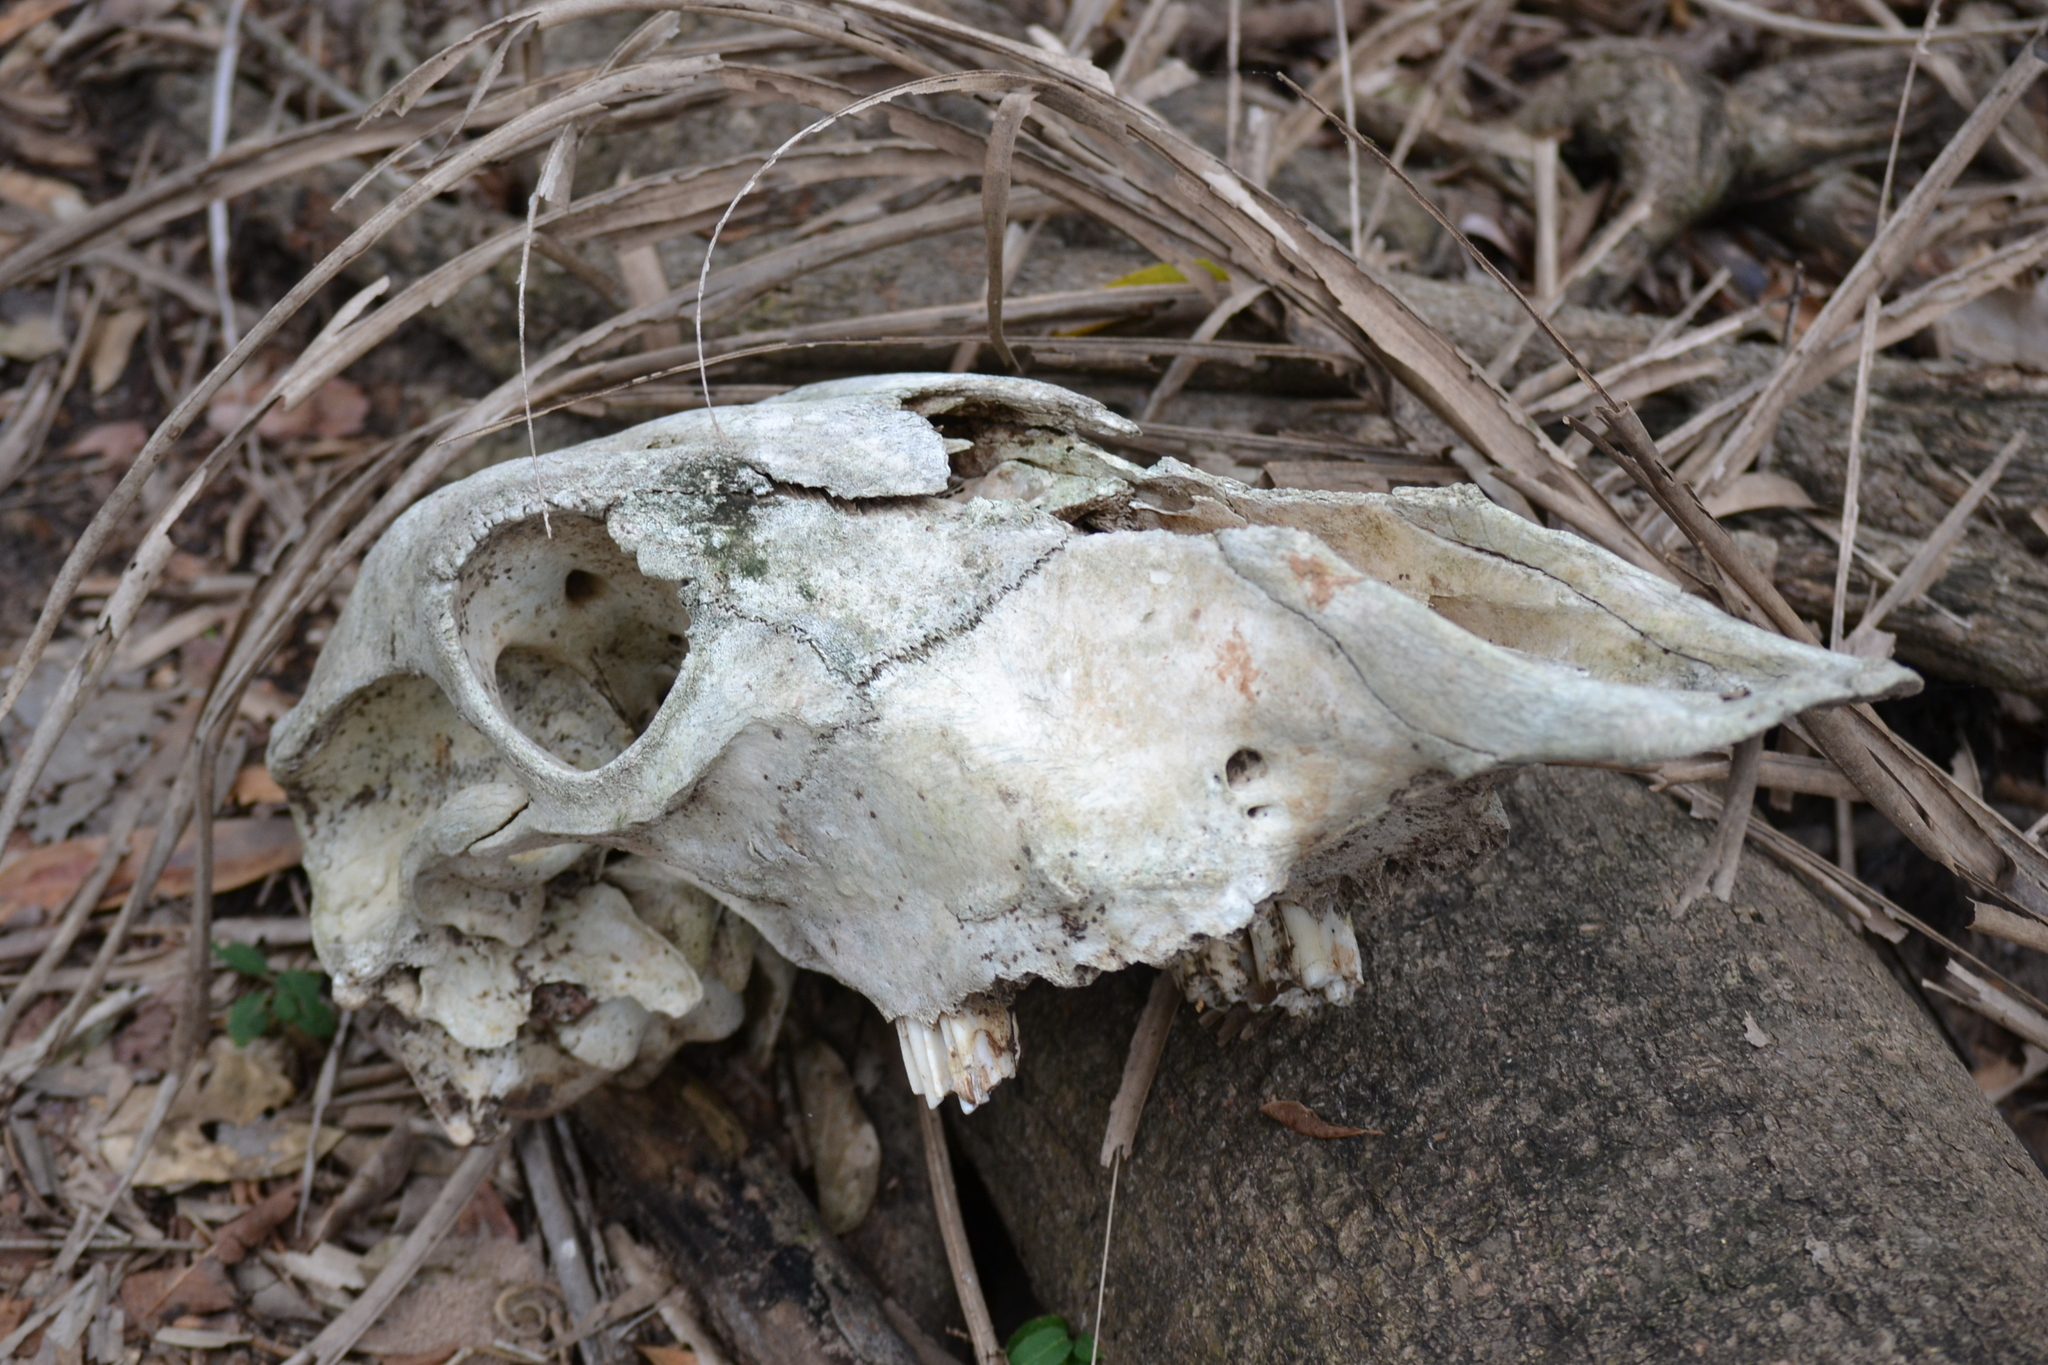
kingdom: Animalia
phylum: Chordata
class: Mammalia
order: Artiodactyla
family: Bovidae
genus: Ovis
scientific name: Ovis aries
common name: Domestic sheep
